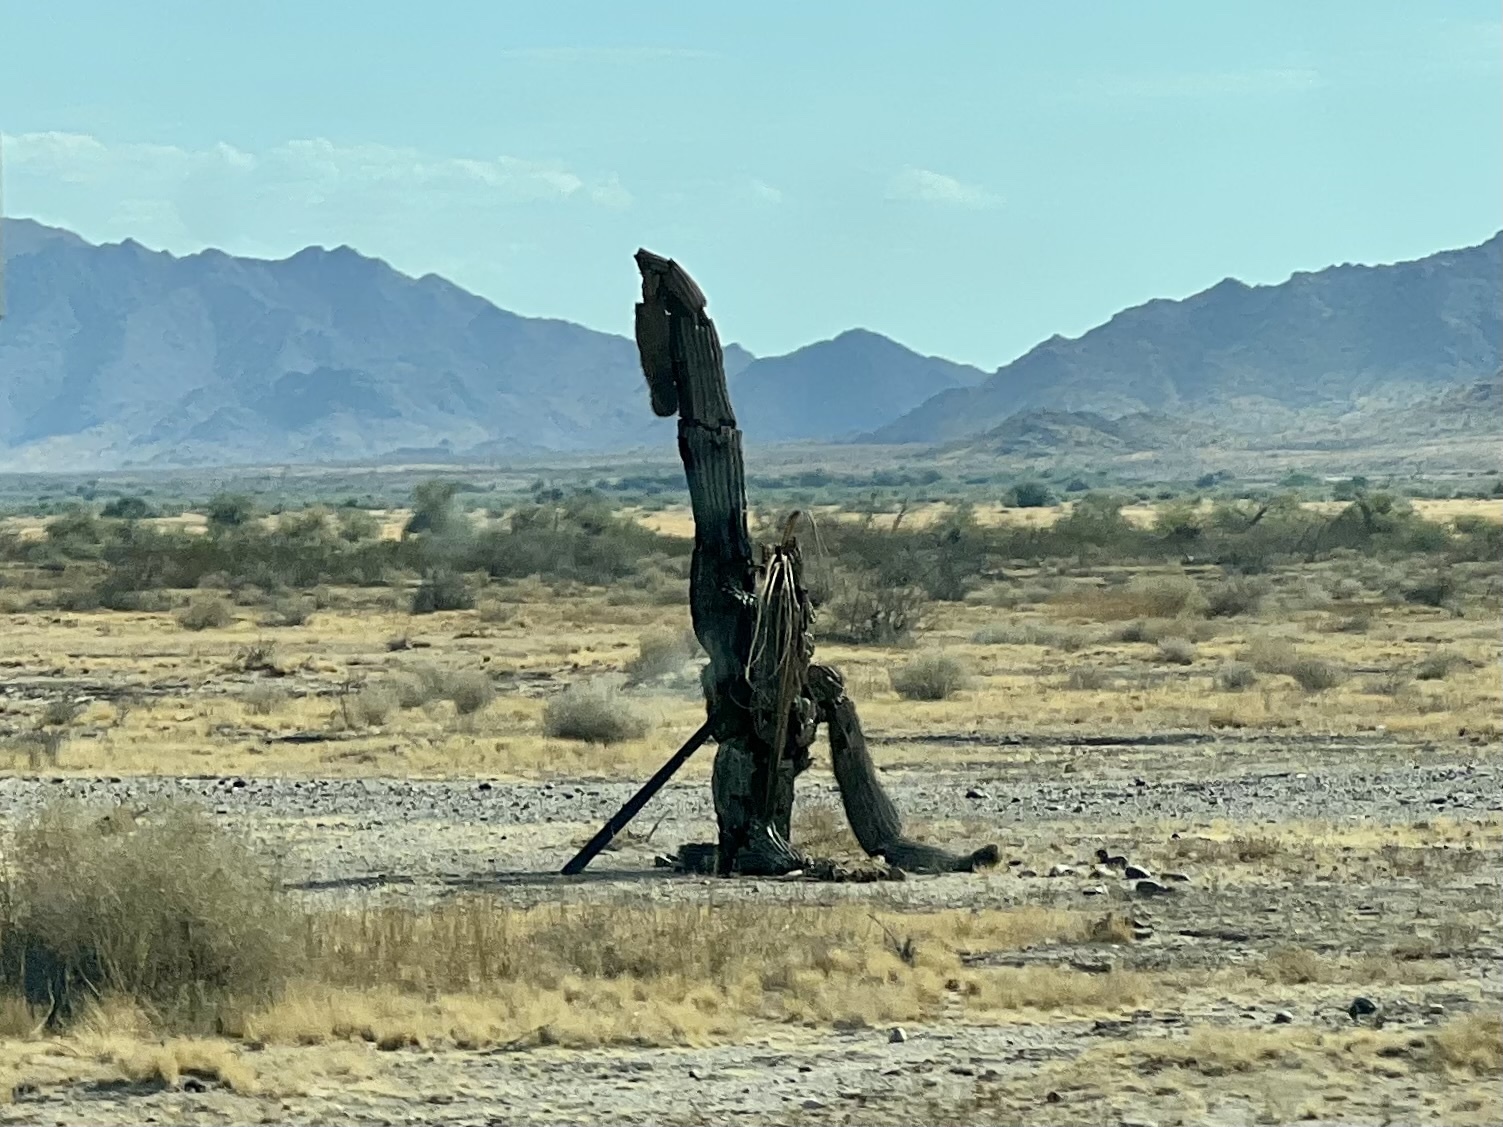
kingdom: Plantae
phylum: Tracheophyta
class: Magnoliopsida
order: Caryophyllales
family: Cactaceae
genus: Carnegiea
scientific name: Carnegiea gigantea
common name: Saguaro
